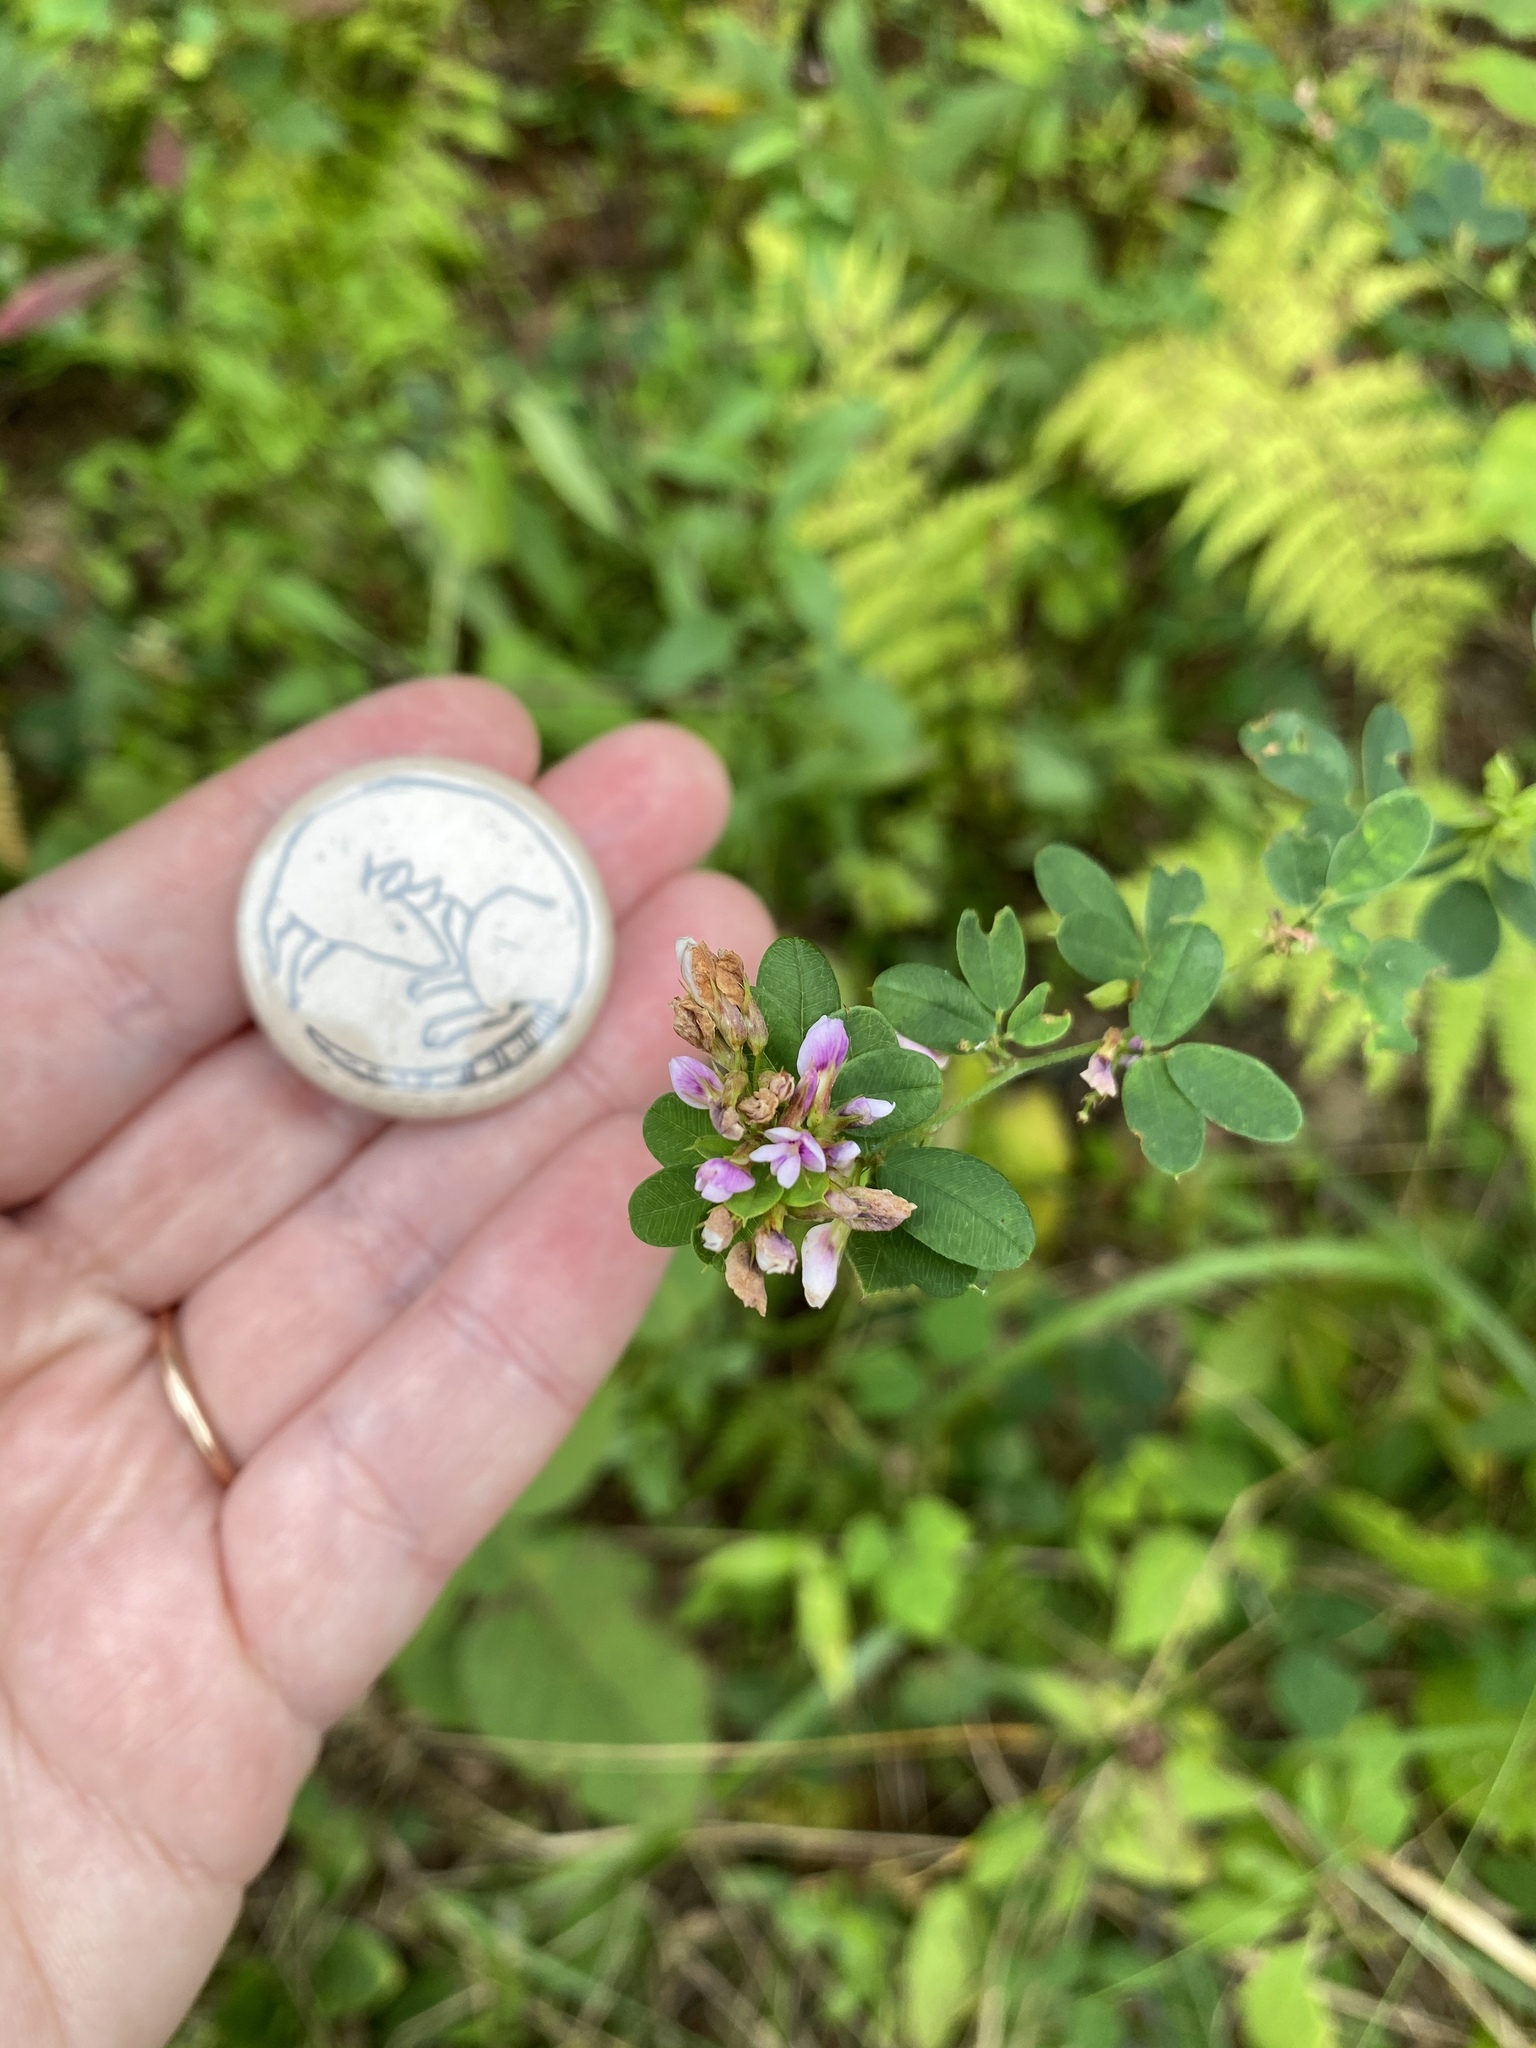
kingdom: Plantae
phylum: Tracheophyta
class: Magnoliopsida
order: Fabales
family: Fabaceae
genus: Lespedeza
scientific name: Lespedeza violacea
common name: Wand bush-clover
